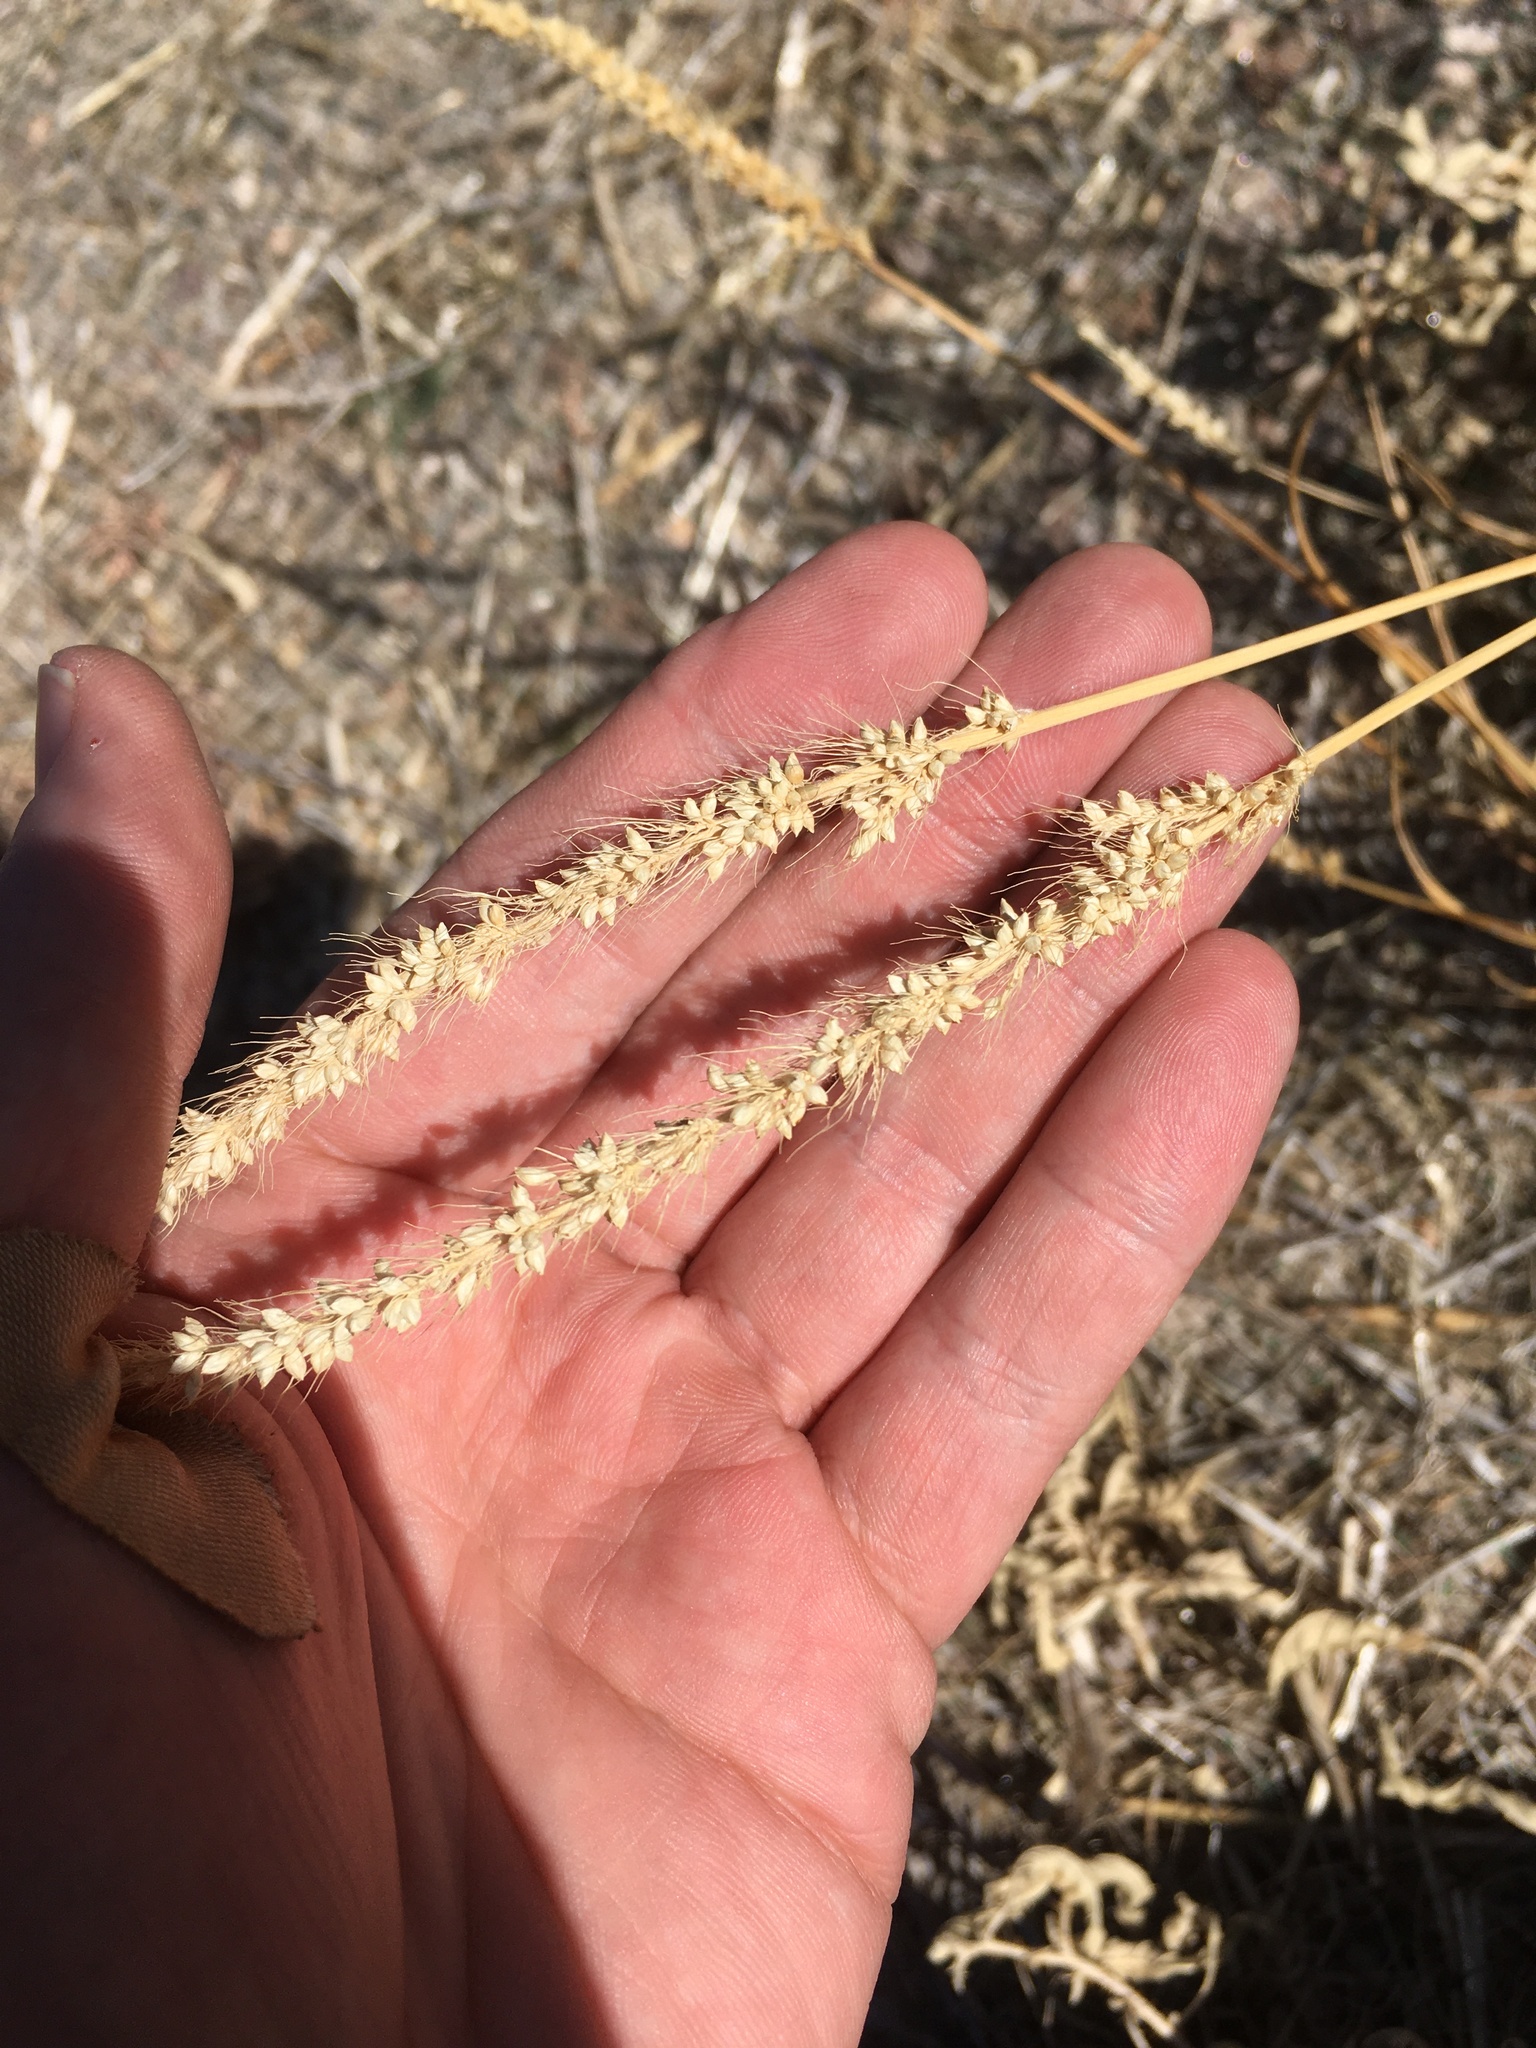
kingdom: Plantae
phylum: Tracheophyta
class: Liliopsida
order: Poales
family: Poaceae
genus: Setaria
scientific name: Setaria leucopila
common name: Plains bristle grass
